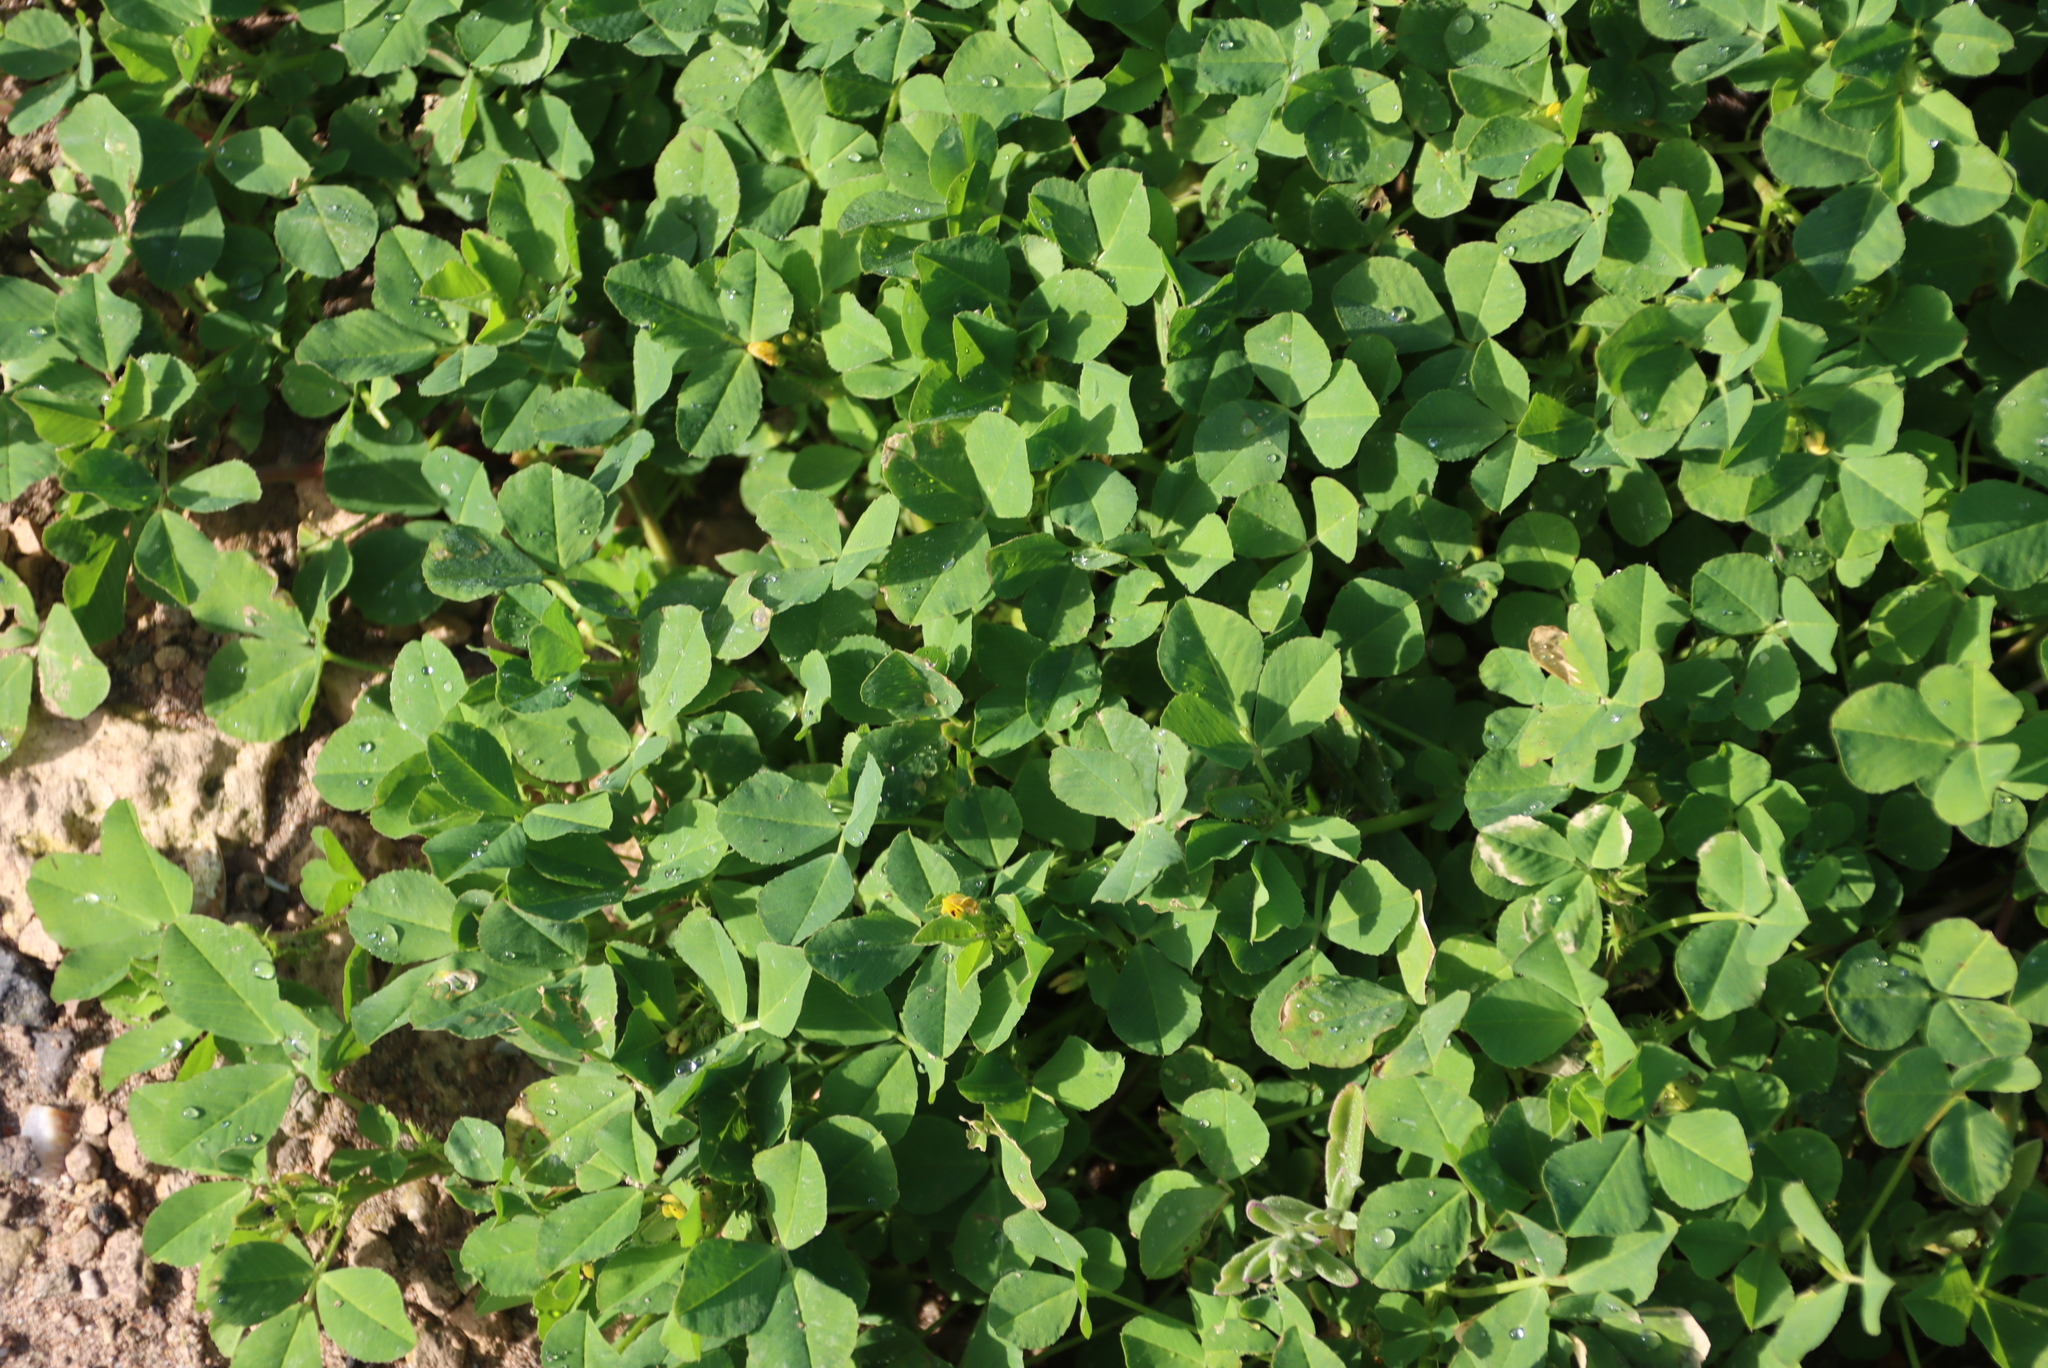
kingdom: Plantae
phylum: Tracheophyta
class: Magnoliopsida
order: Fabales
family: Fabaceae
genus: Medicago
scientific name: Medicago polymorpha
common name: Burclover
